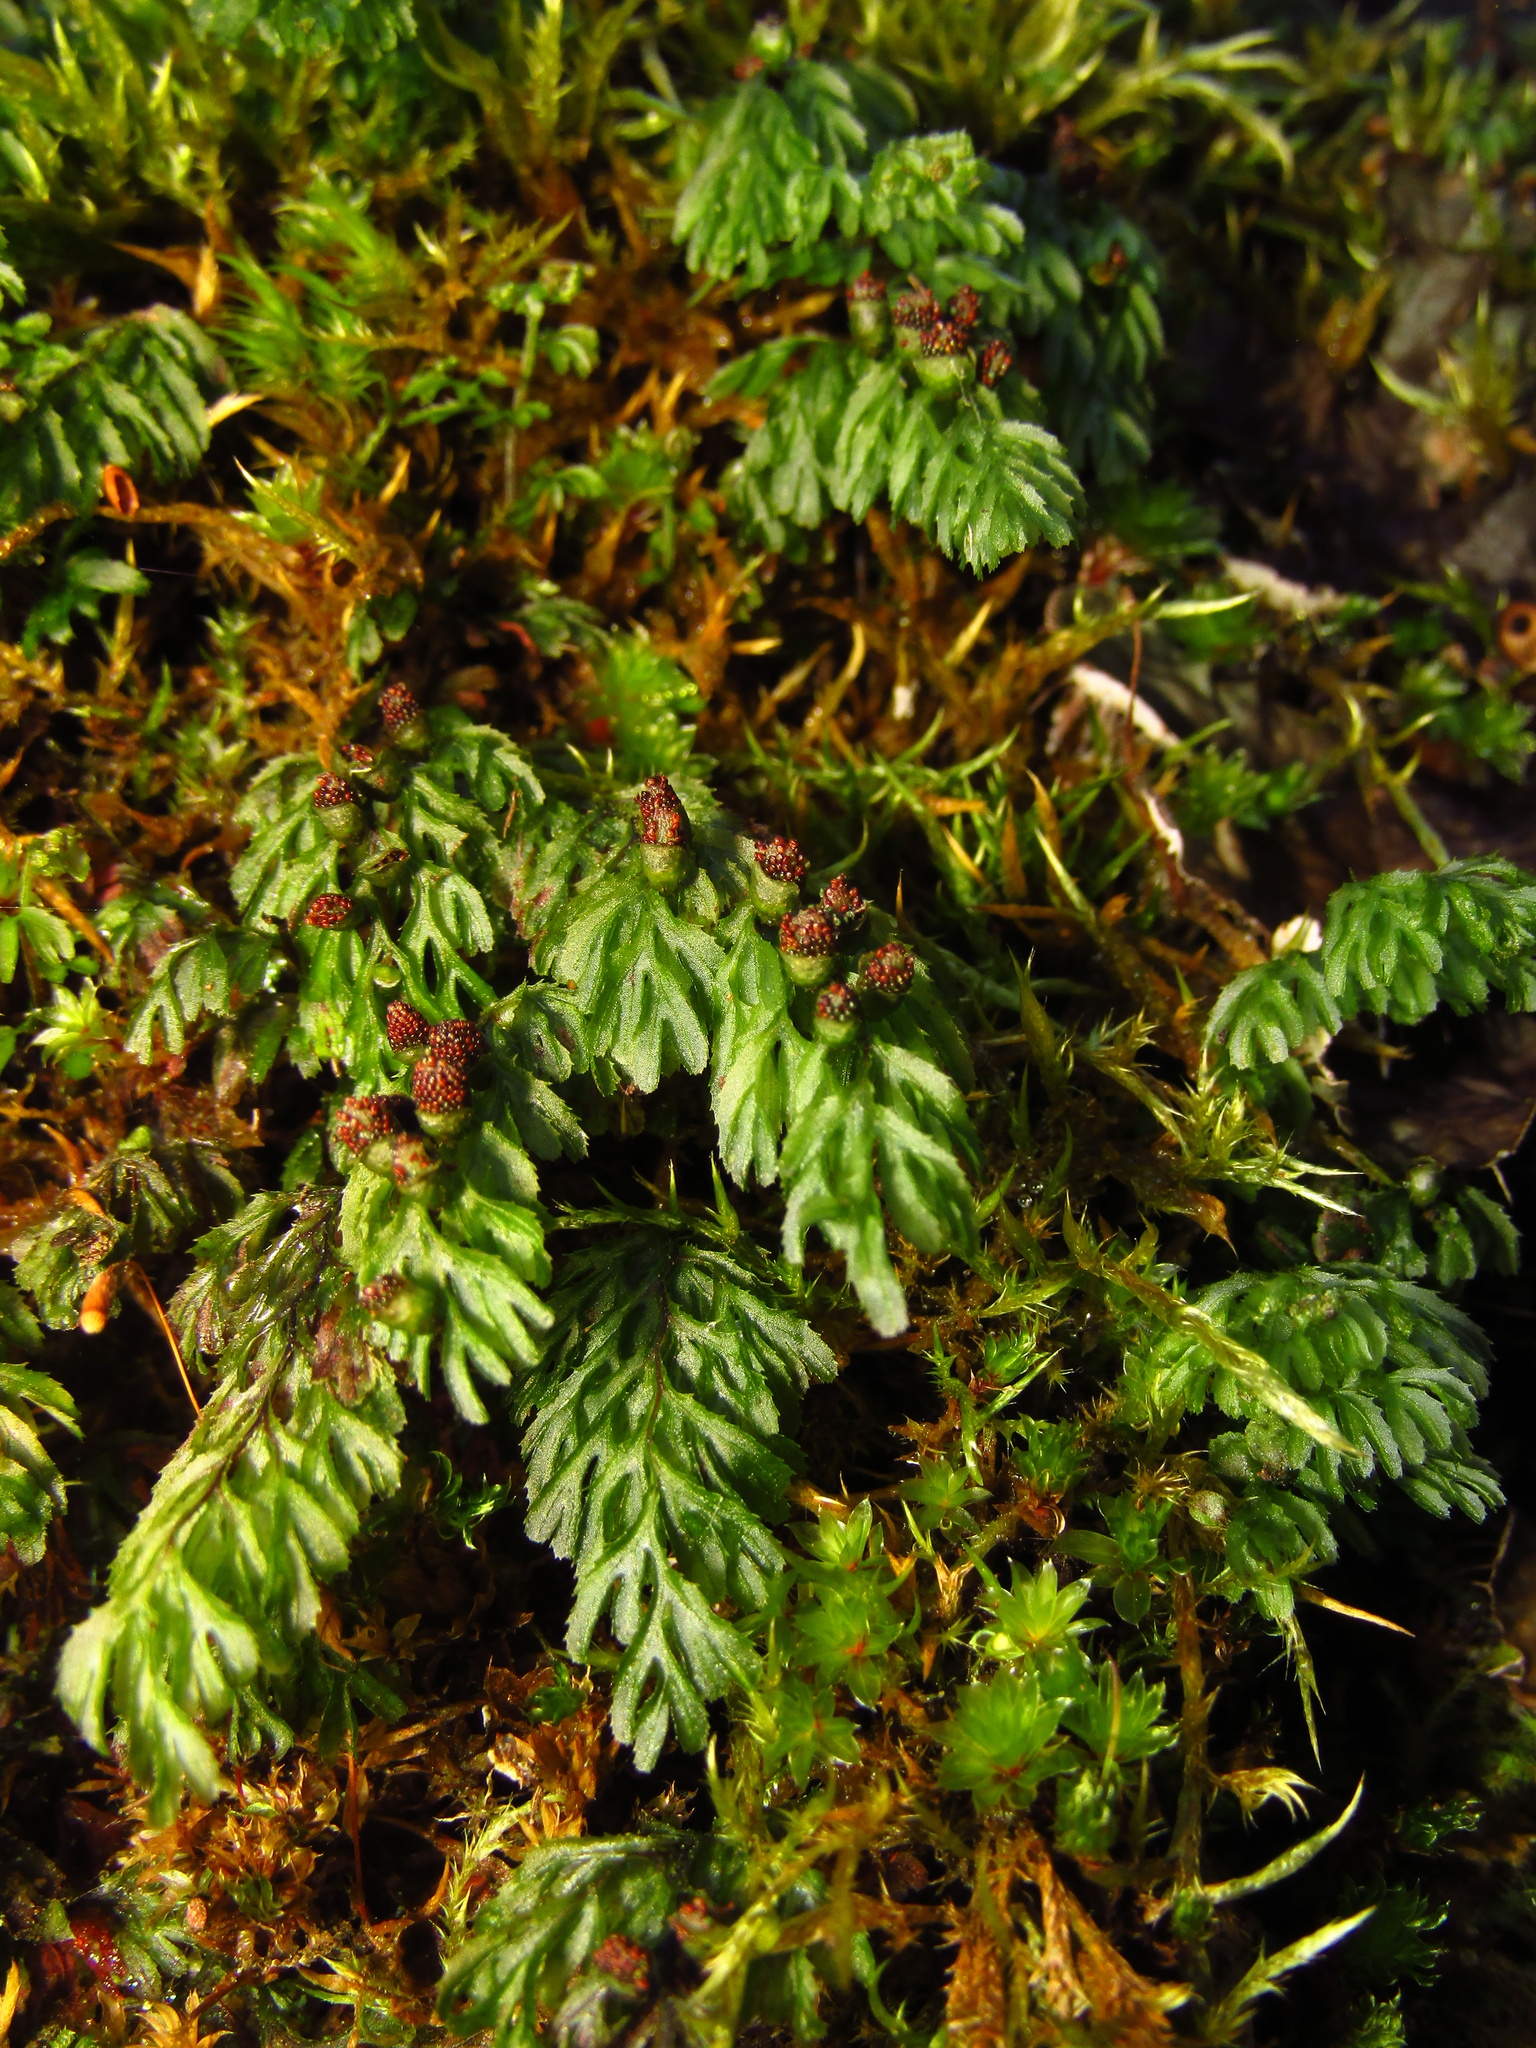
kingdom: Plantae
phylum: Tracheophyta
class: Polypodiopsida
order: Hymenophyllales
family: Hymenophyllaceae
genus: Hymenophyllum
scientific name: Hymenophyllum cupressiforme
